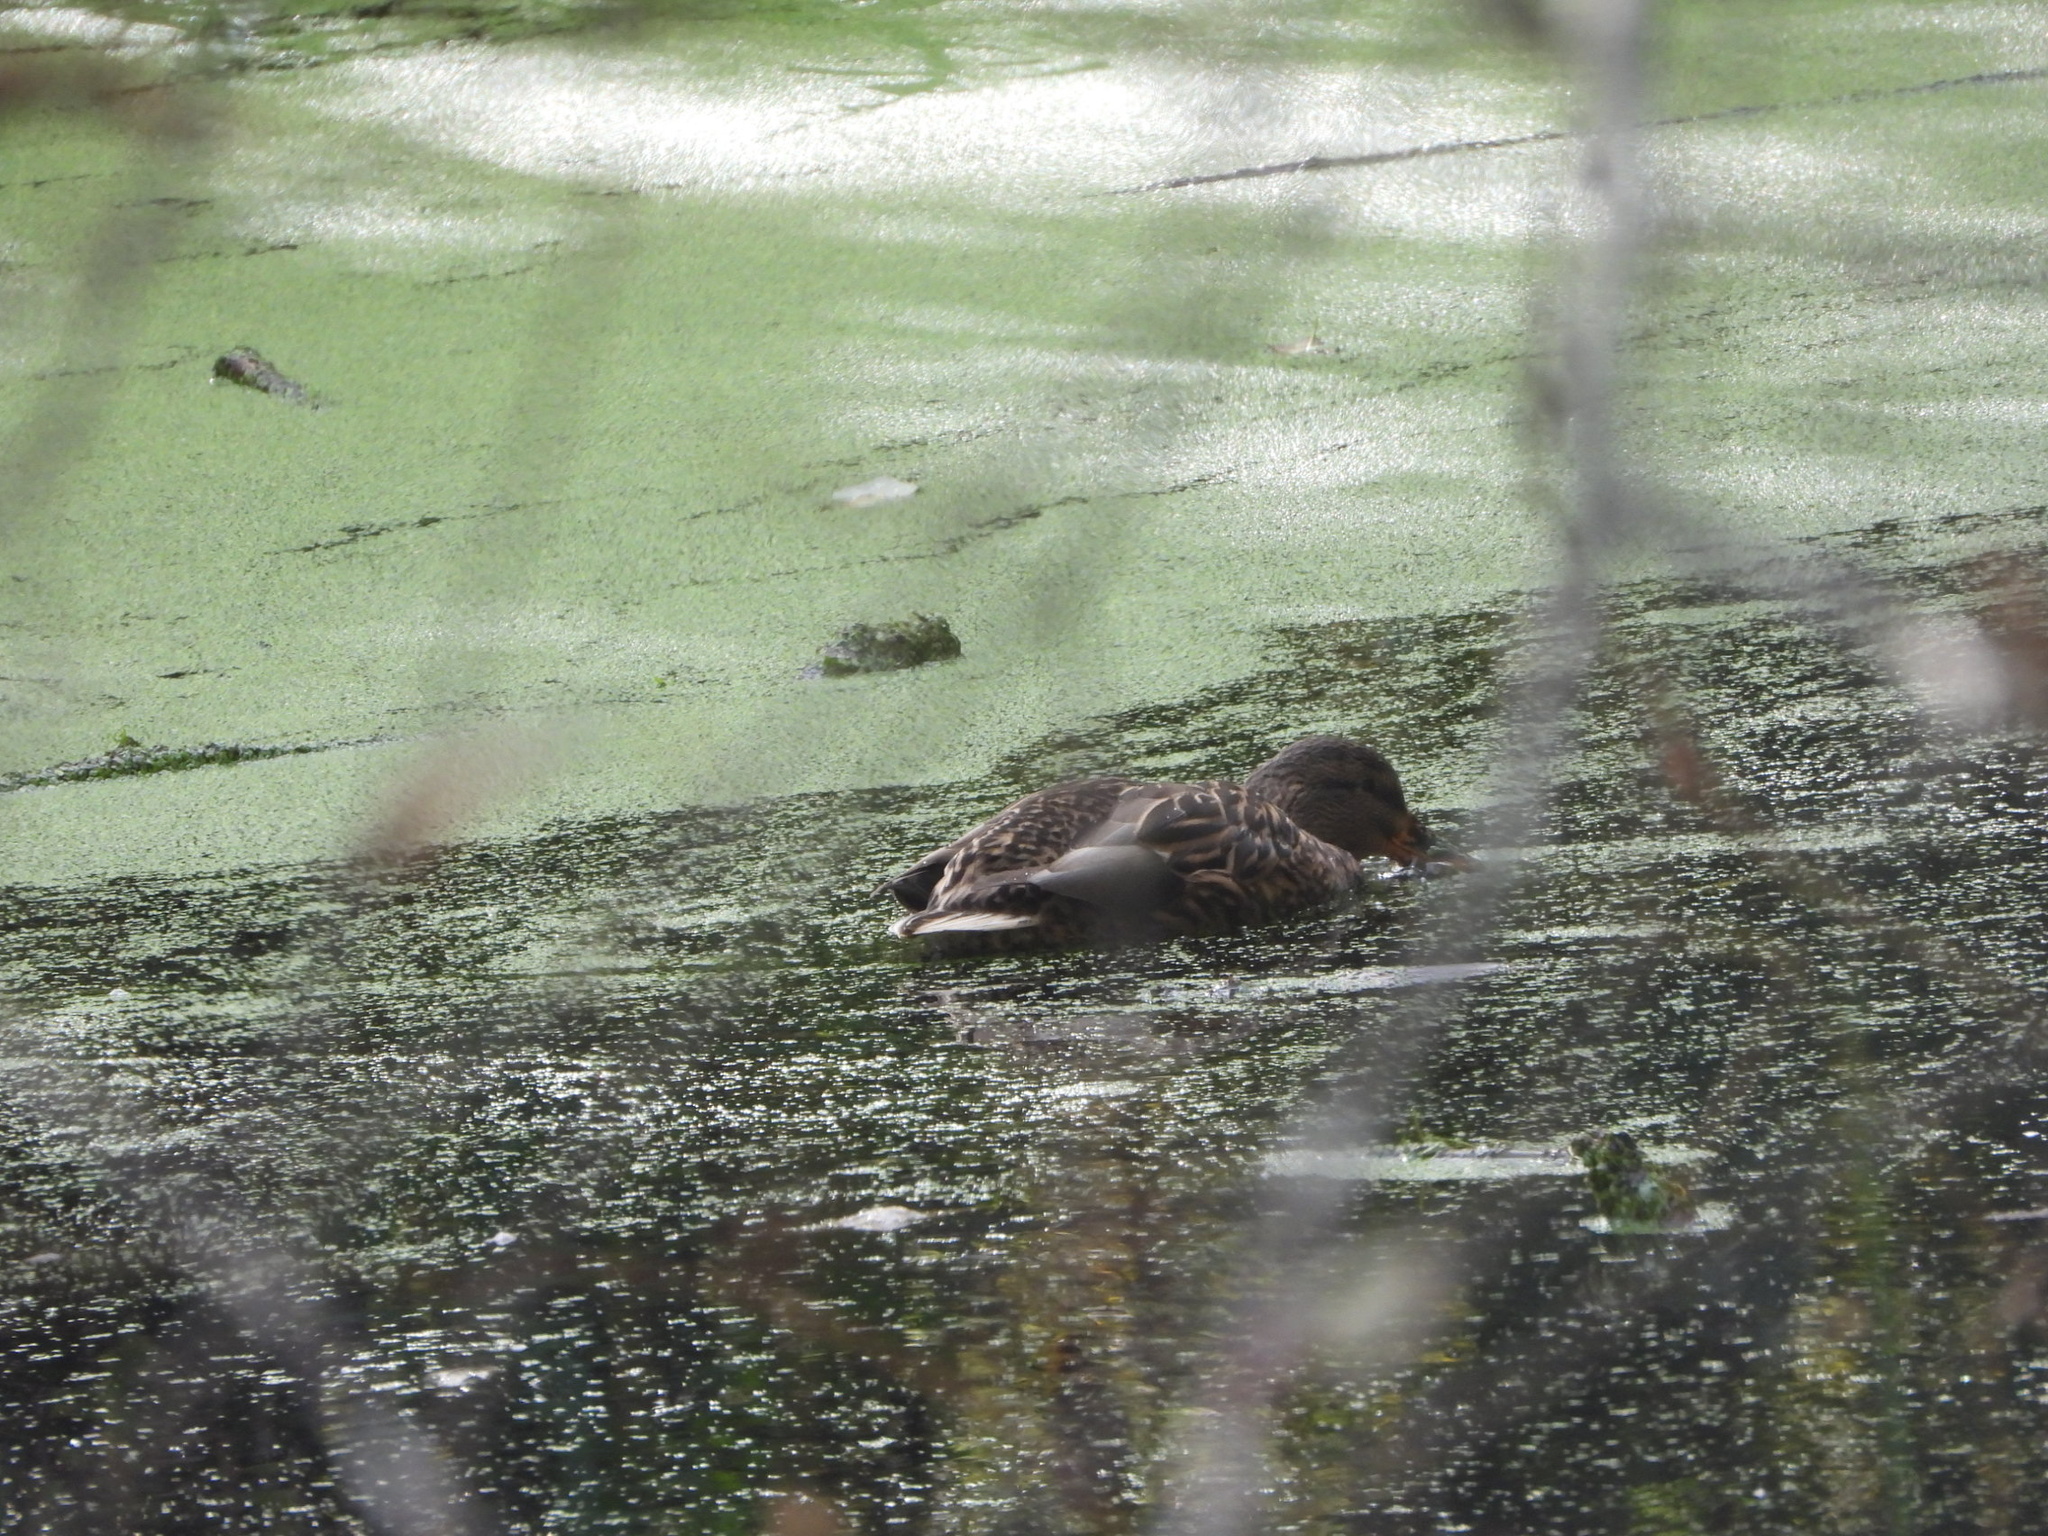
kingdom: Animalia
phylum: Chordata
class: Aves
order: Anseriformes
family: Anatidae
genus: Anas
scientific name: Anas platyrhynchos
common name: Mallard
